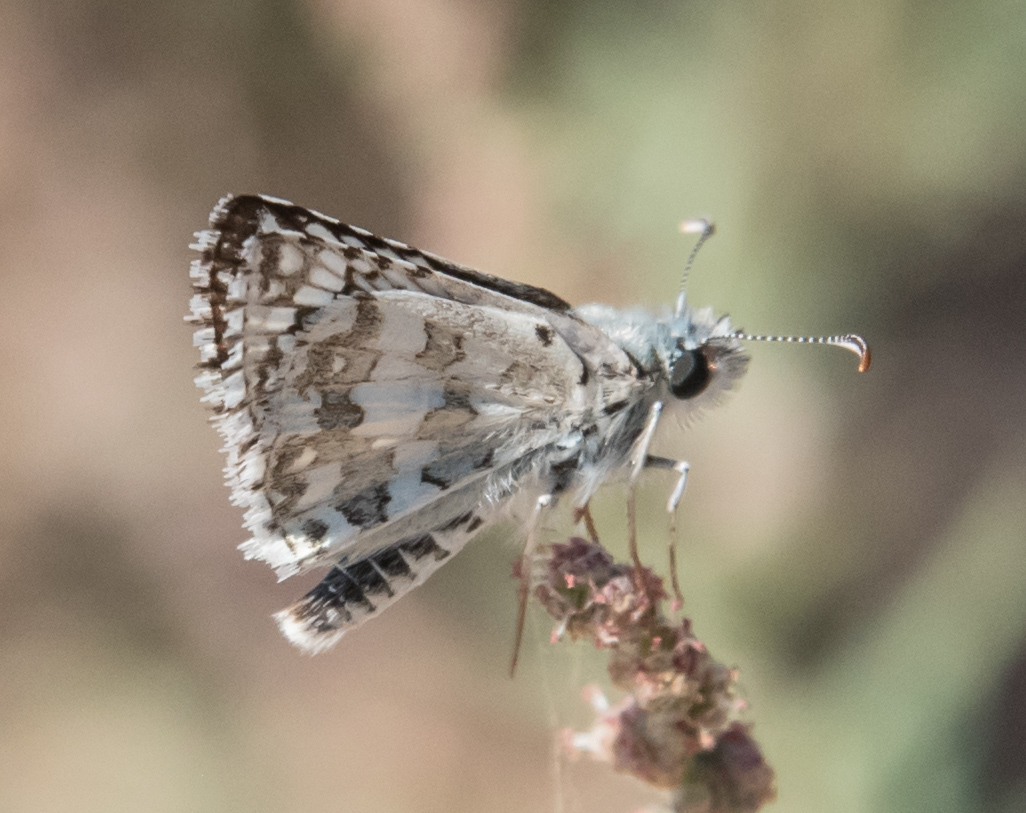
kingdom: Animalia
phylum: Arthropoda
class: Insecta
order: Lepidoptera
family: Hesperiidae
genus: Burnsius
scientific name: Burnsius albezens
